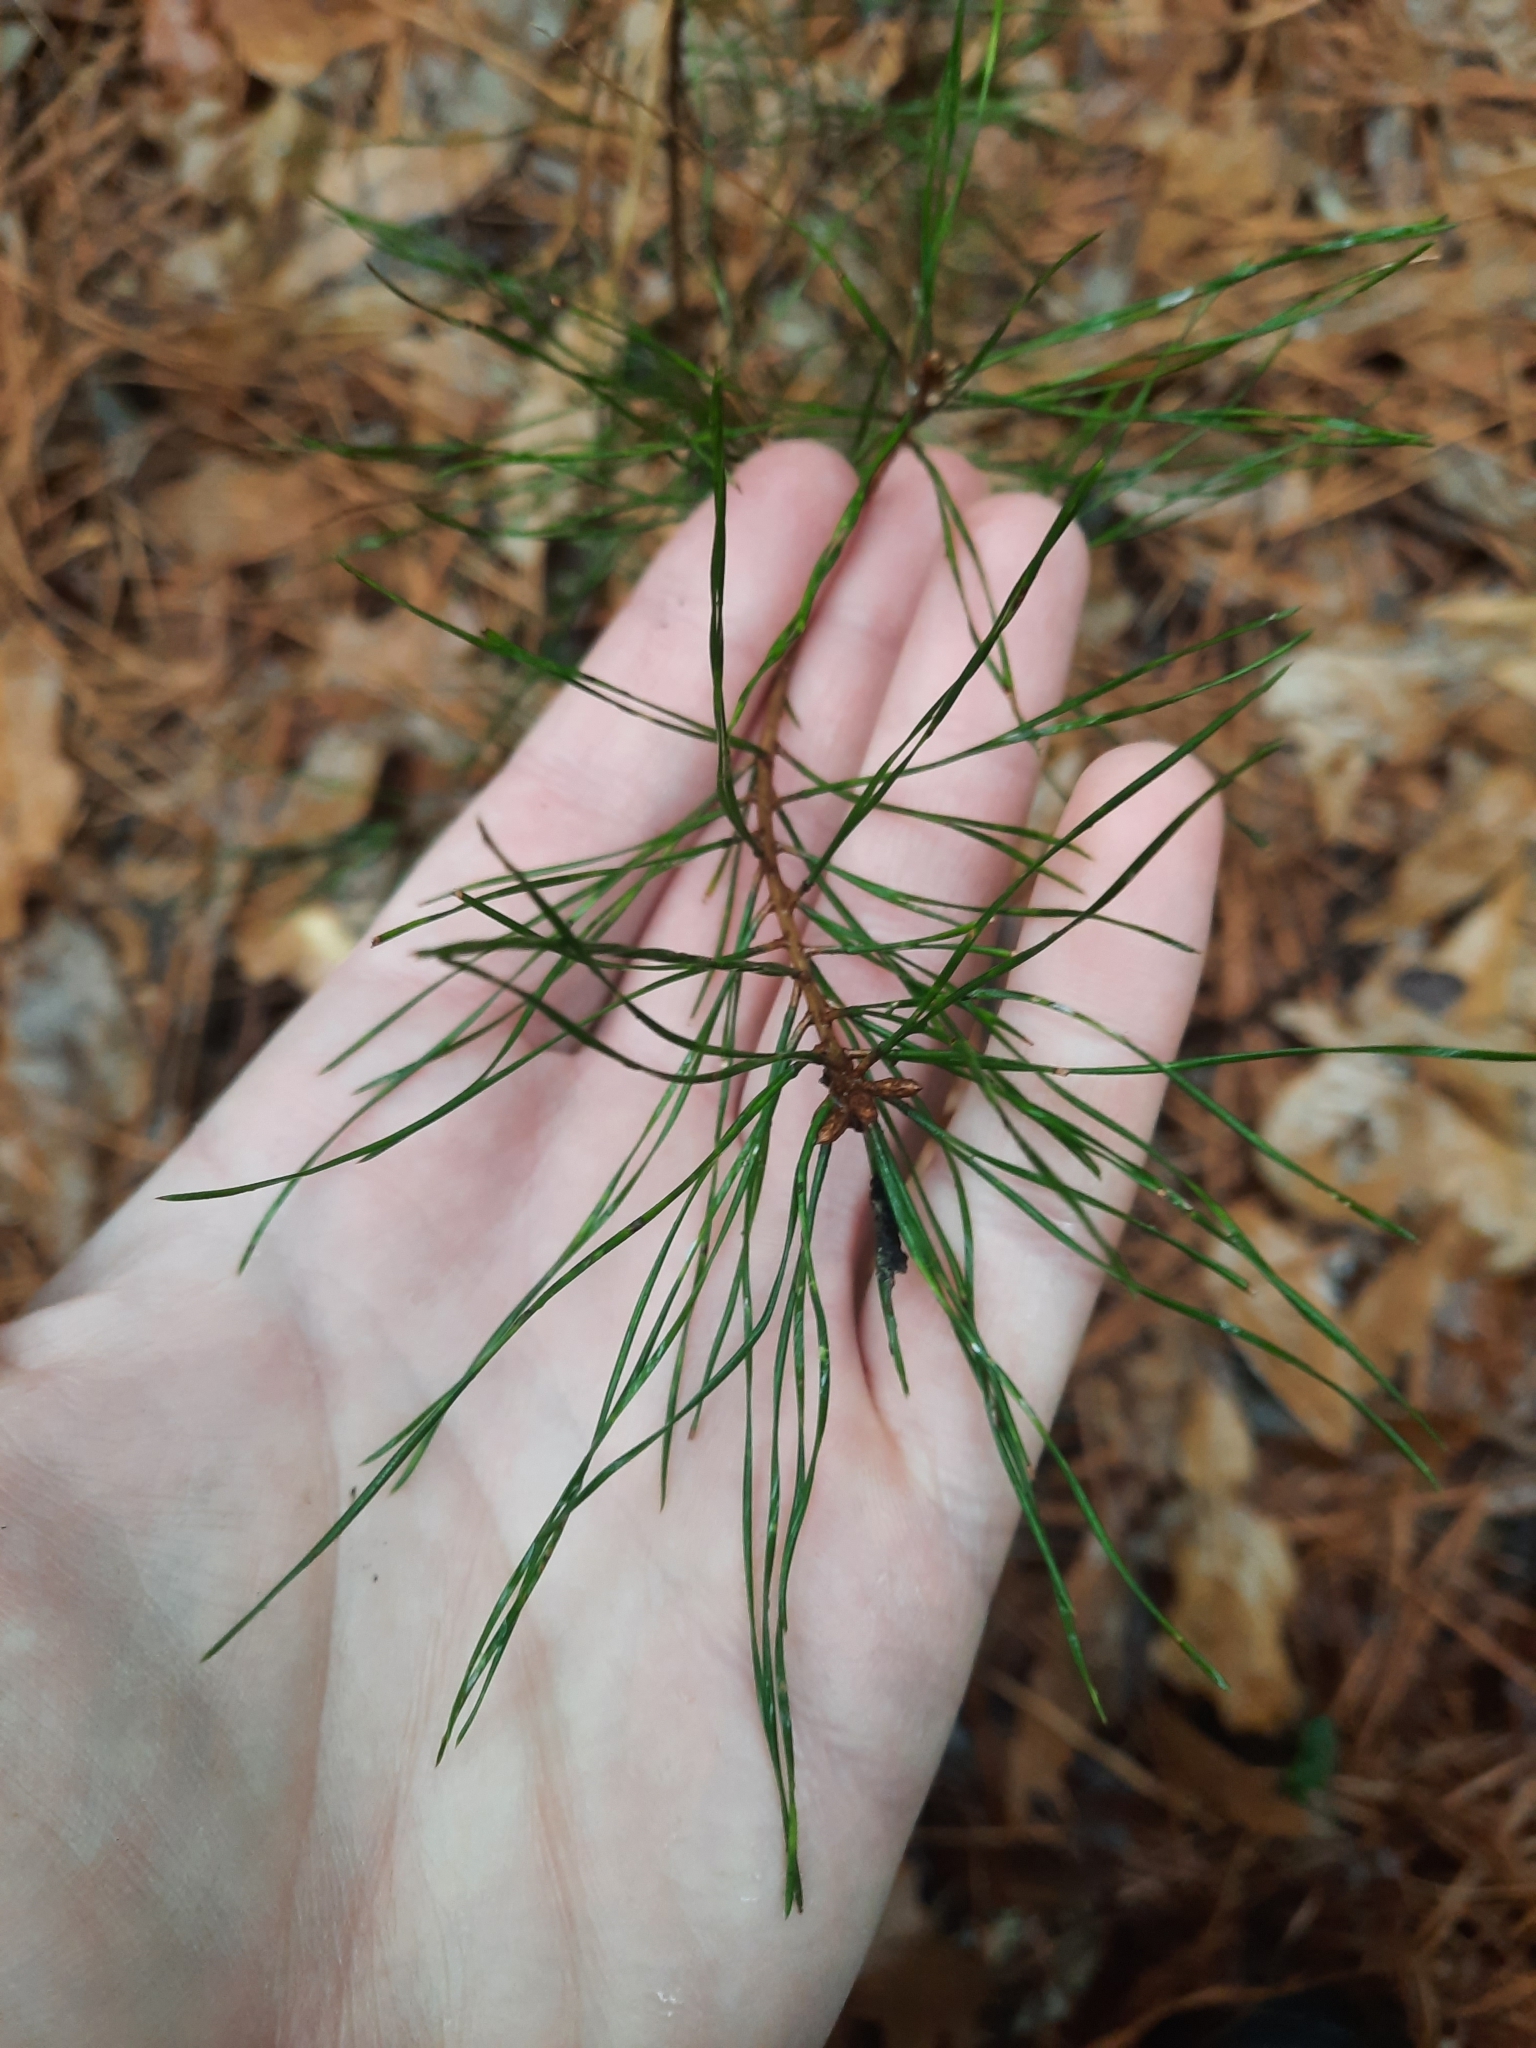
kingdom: Plantae
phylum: Tracheophyta
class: Pinopsida
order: Pinales
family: Pinaceae
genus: Pinus
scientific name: Pinus glabra
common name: Spruce pine
